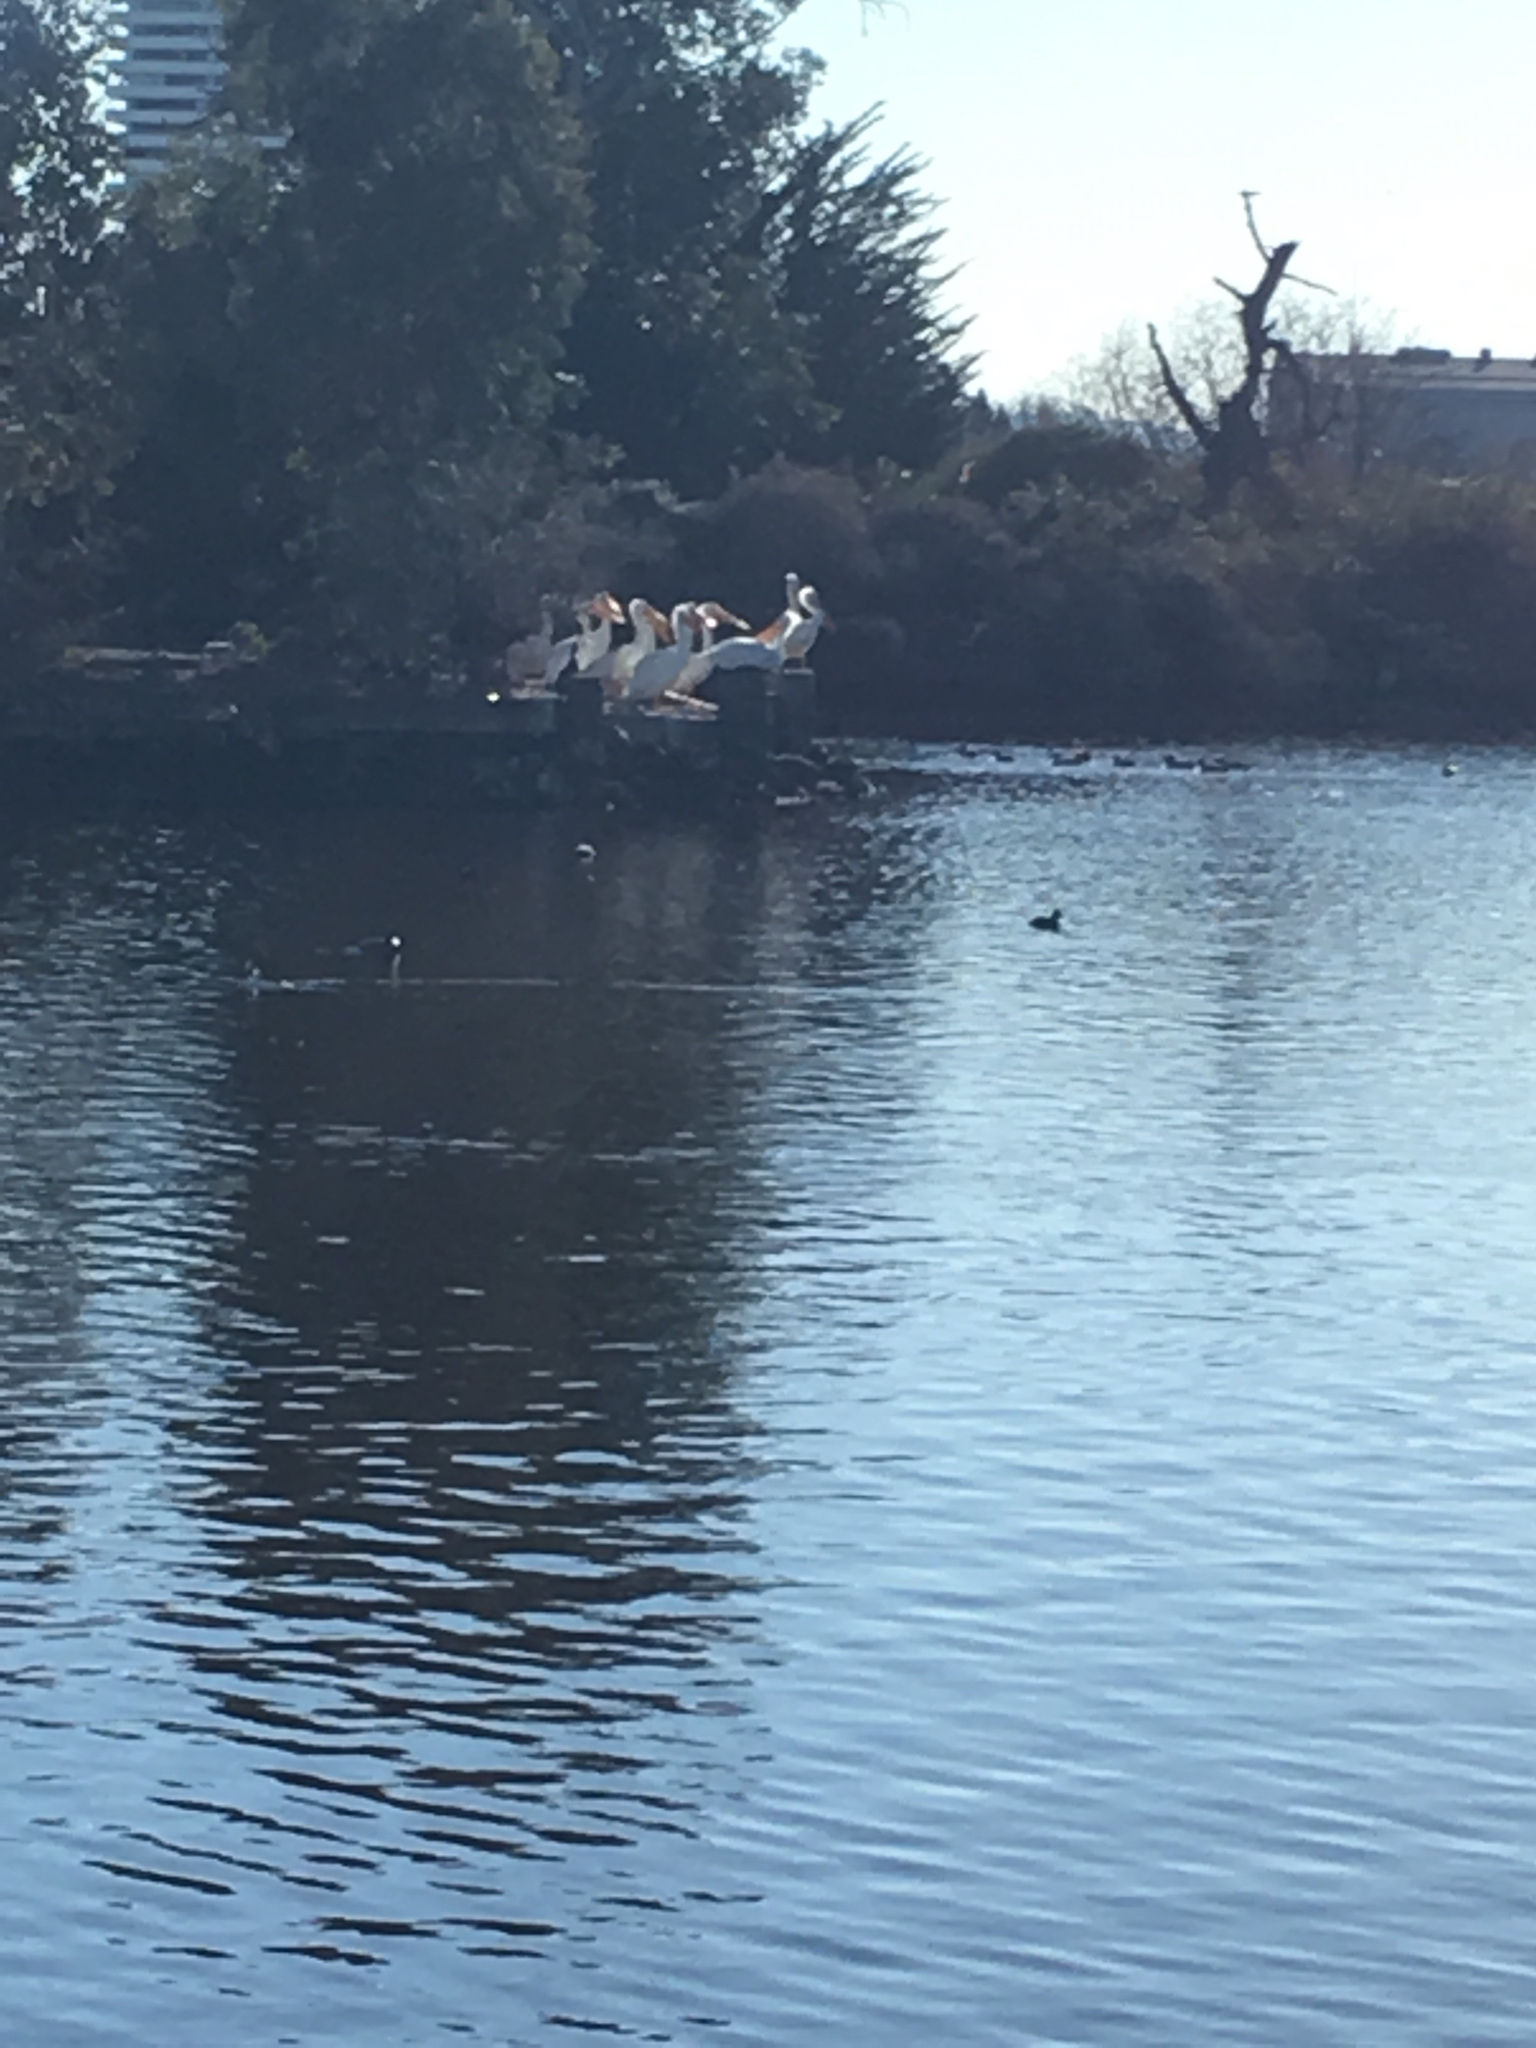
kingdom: Animalia
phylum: Chordata
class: Aves
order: Pelecaniformes
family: Pelecanidae
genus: Pelecanus
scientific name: Pelecanus erythrorhynchos
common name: American white pelican
